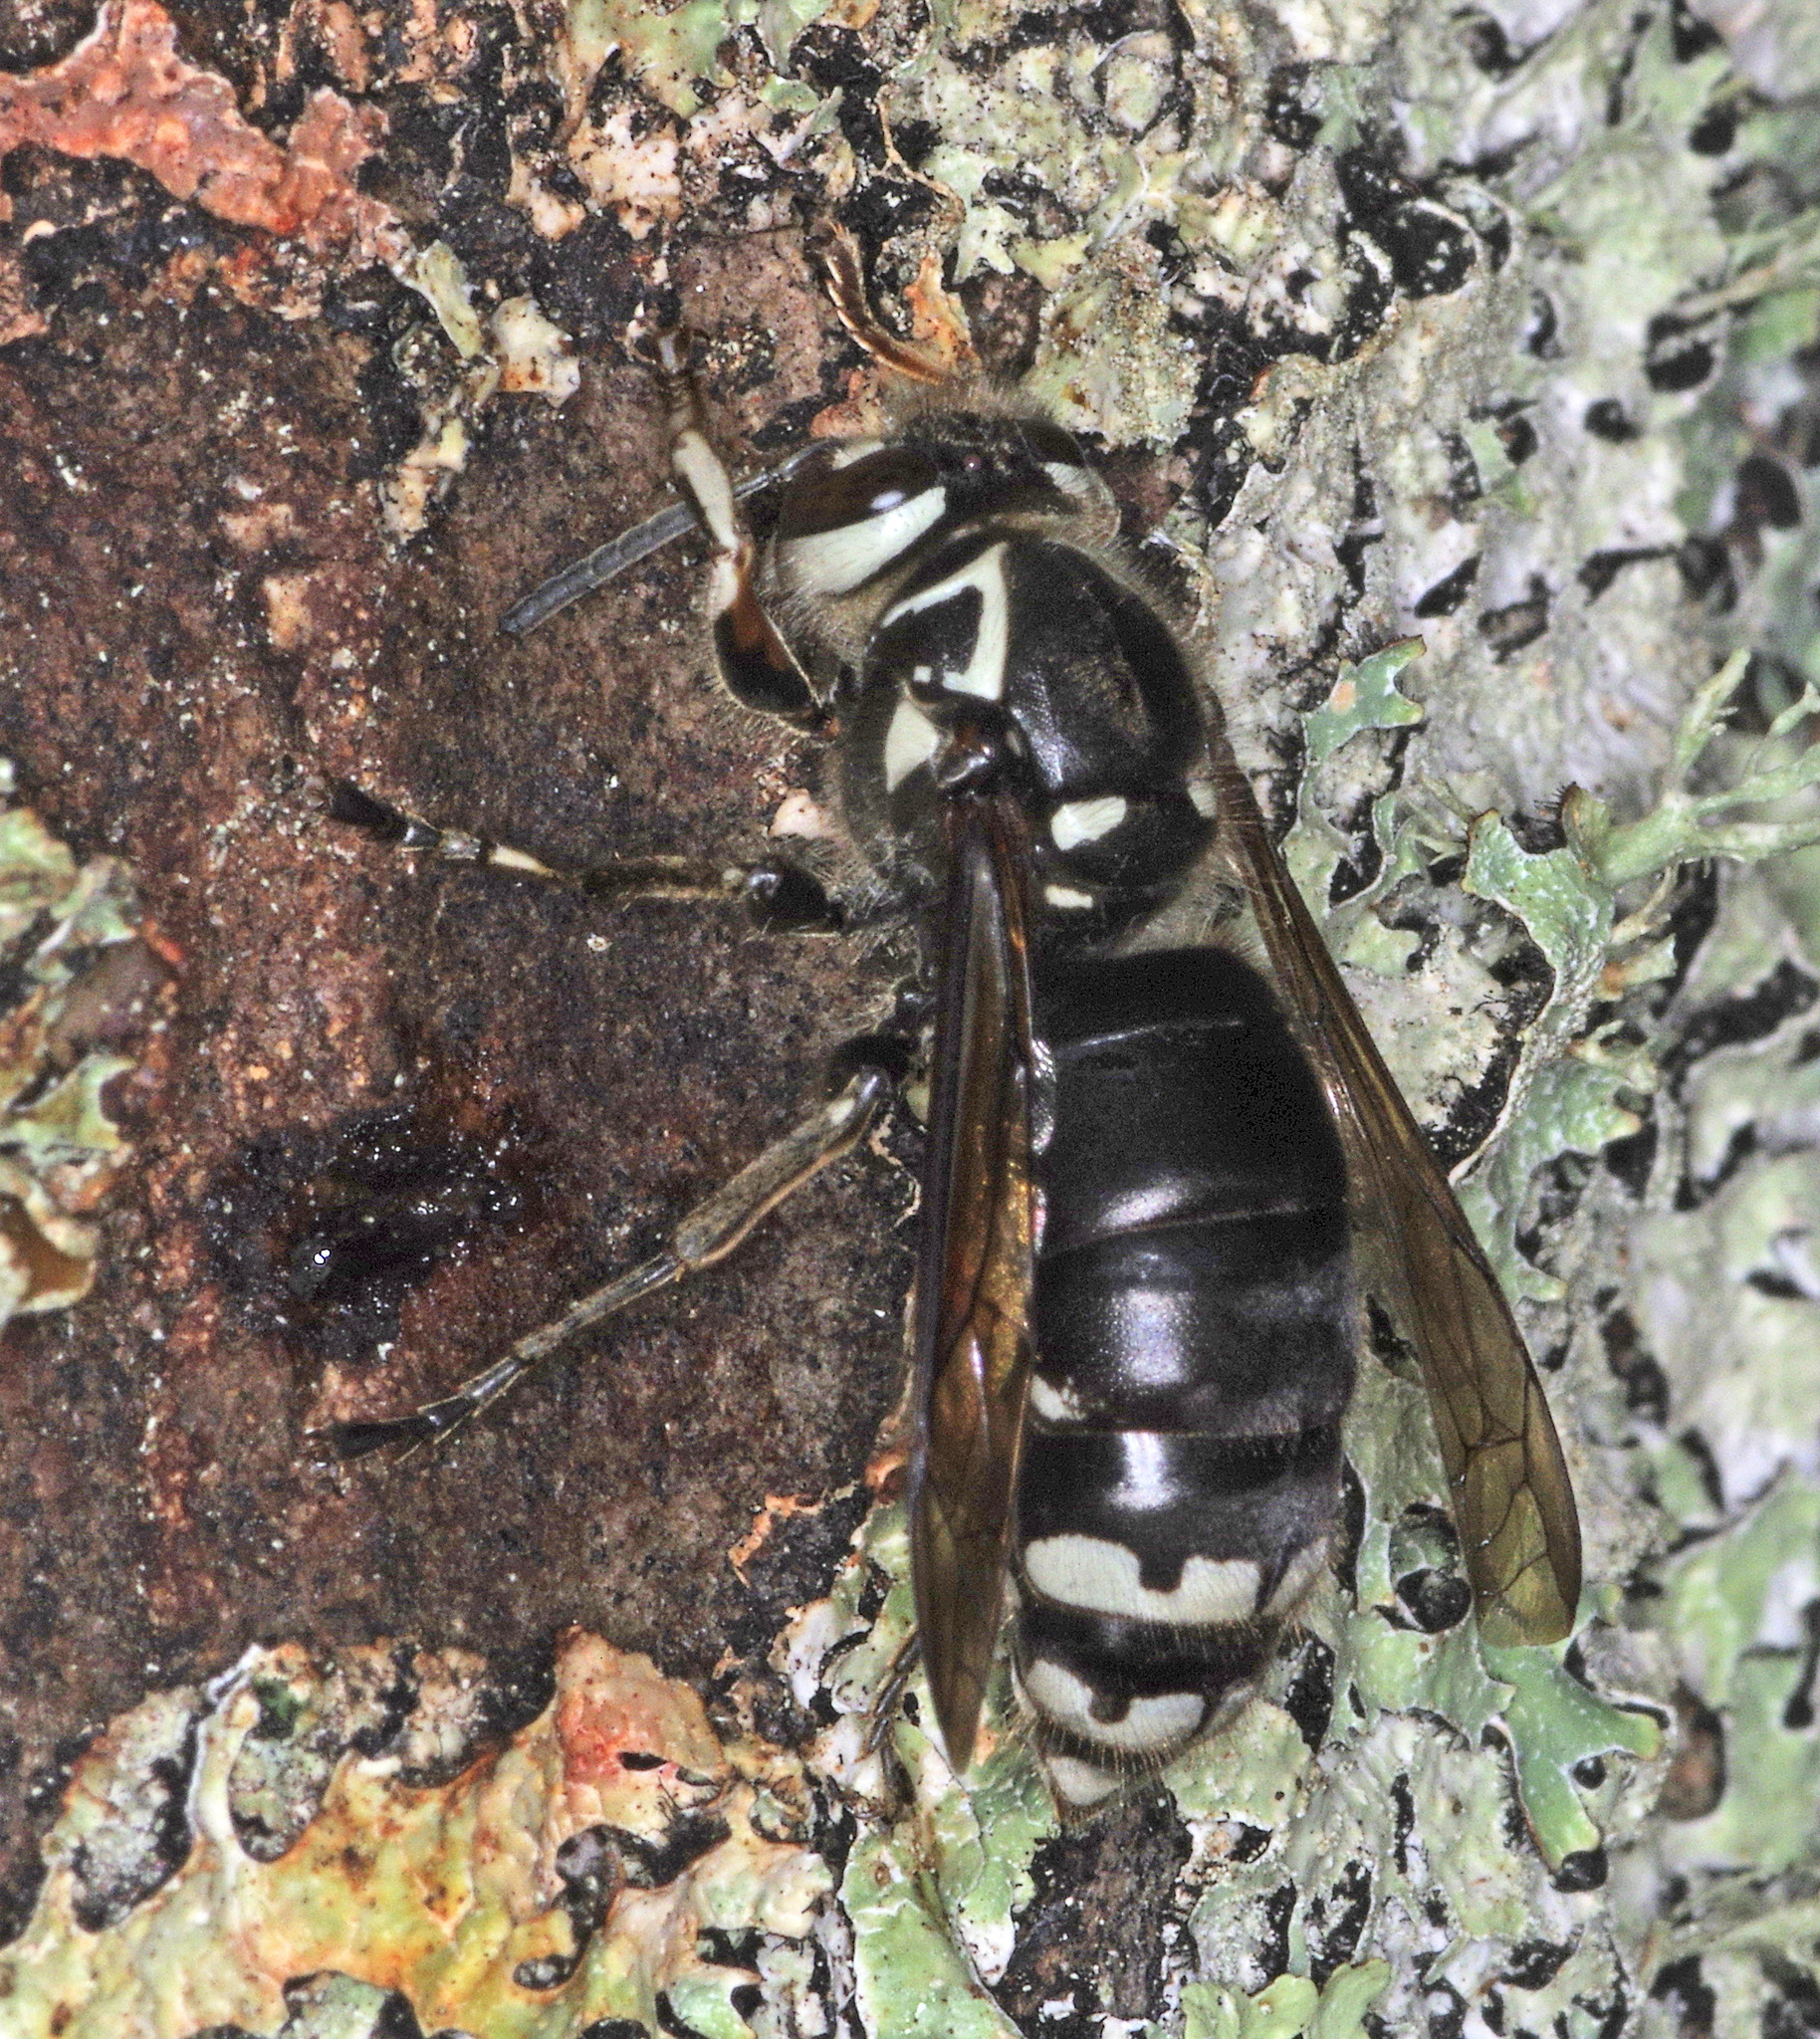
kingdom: Animalia
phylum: Arthropoda
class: Insecta
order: Hymenoptera
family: Vespidae
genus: Dolichovespula
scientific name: Dolichovespula maculata
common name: Bald-faced hornet
